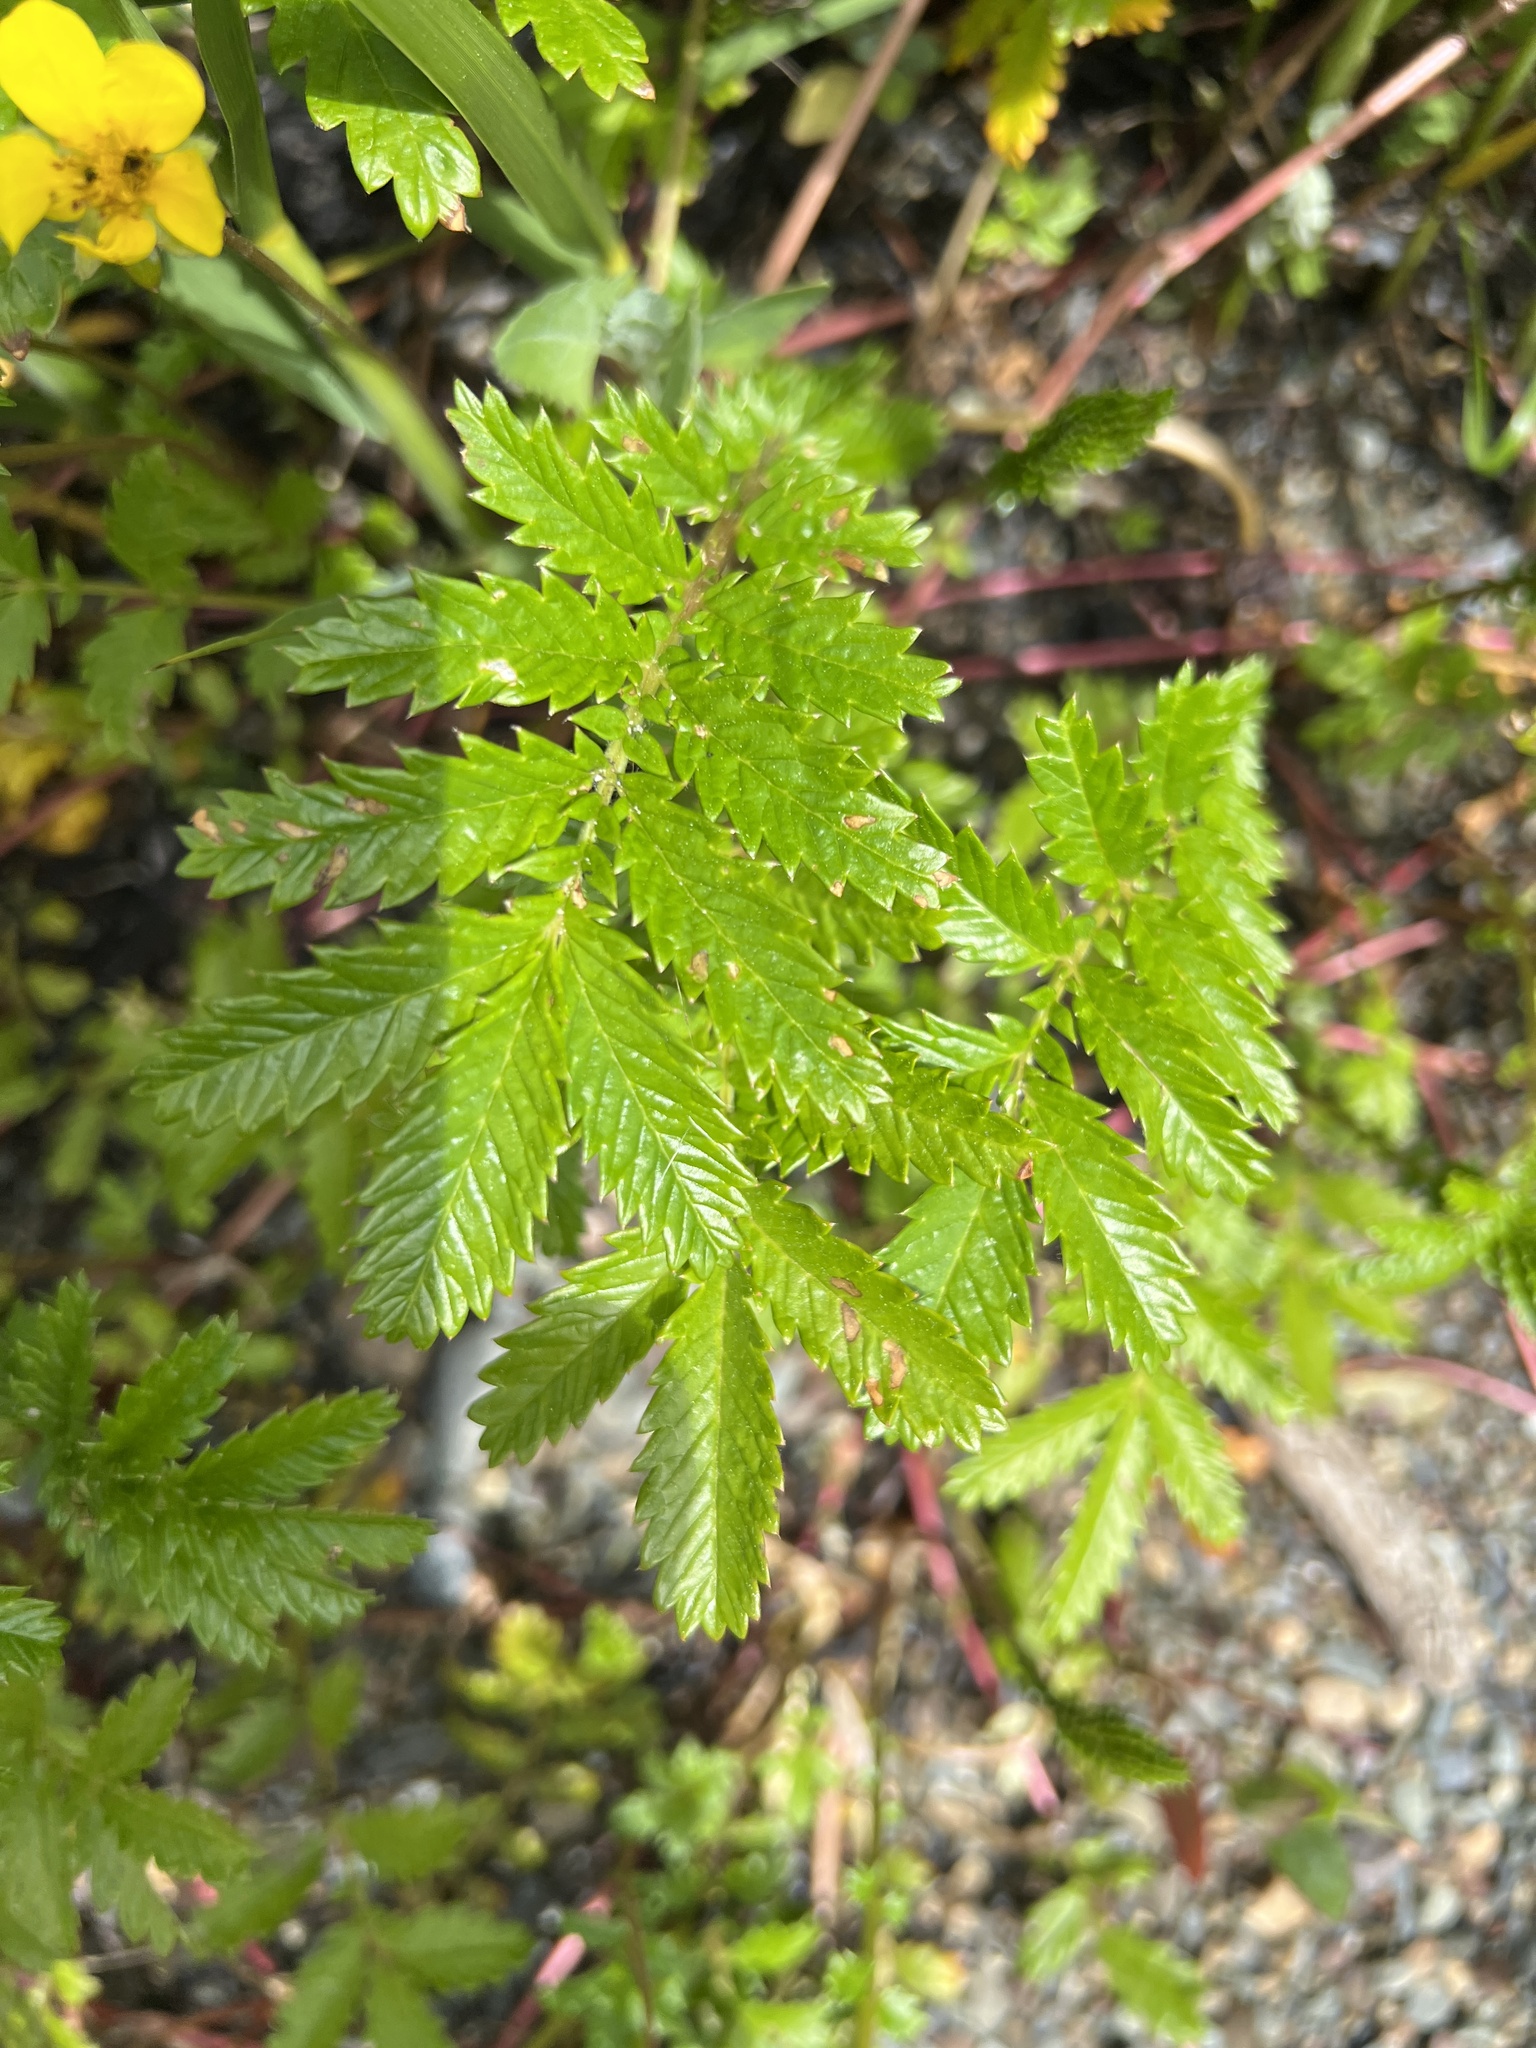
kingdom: Plantae
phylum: Tracheophyta
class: Magnoliopsida
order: Rosales
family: Rosaceae
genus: Argentina
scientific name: Argentina anserina
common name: Common silverweed
